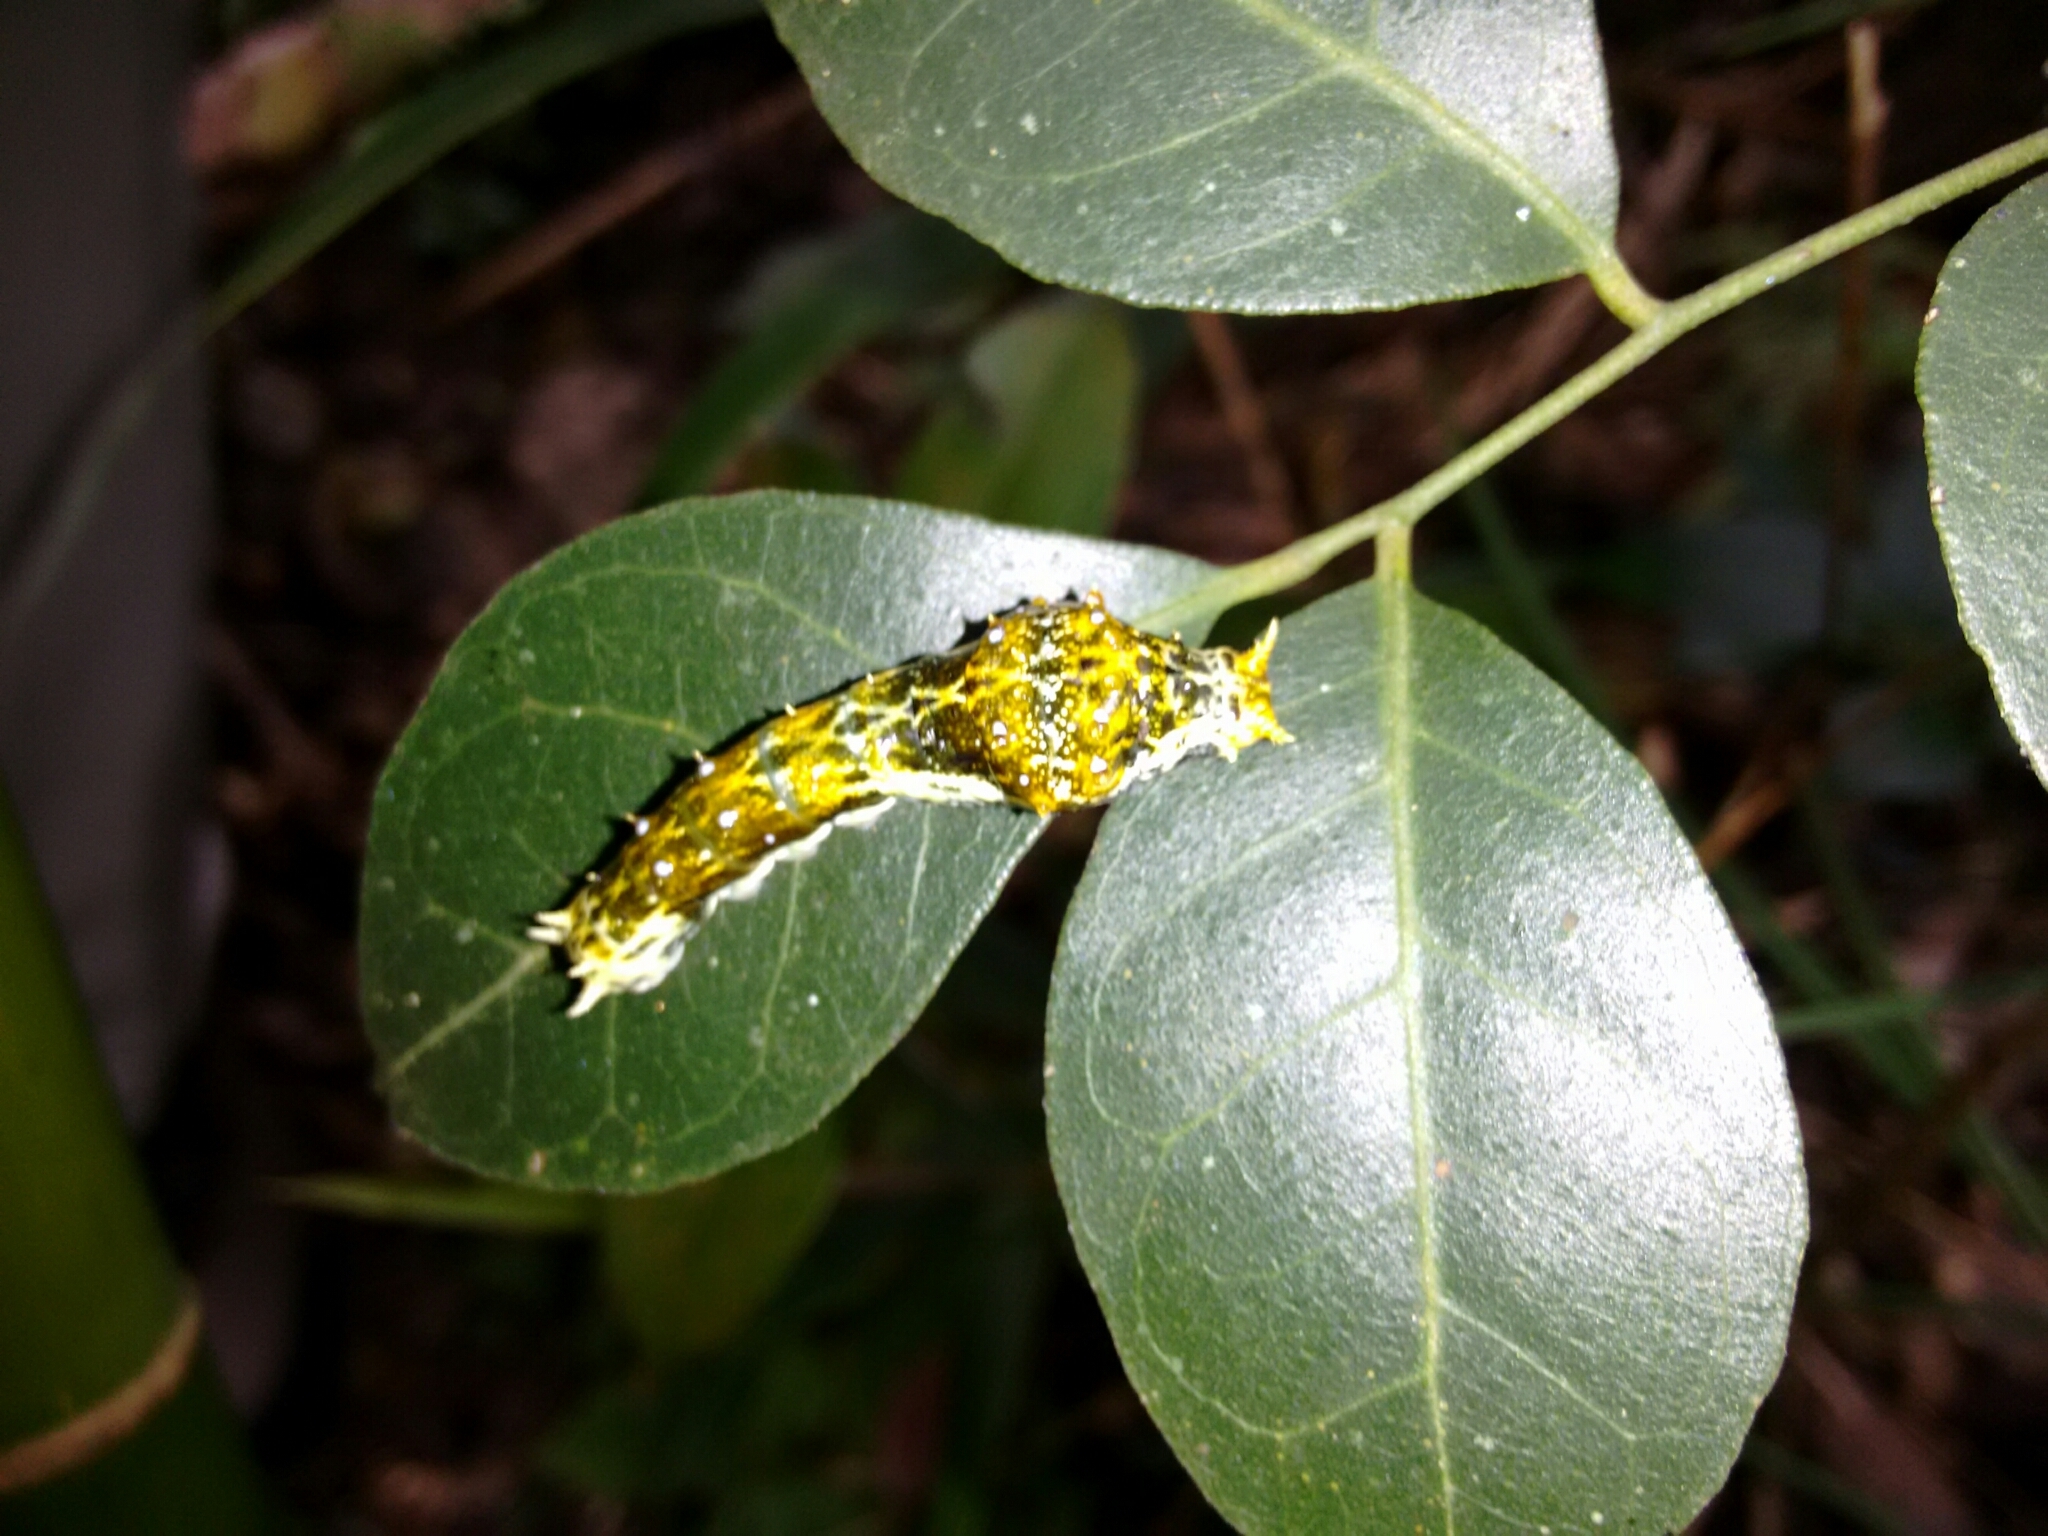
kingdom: Animalia
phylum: Arthropoda
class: Insecta
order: Lepidoptera
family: Papilionidae
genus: Papilio
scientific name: Papilio dialis
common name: Southern chinese peacock swallowtail
